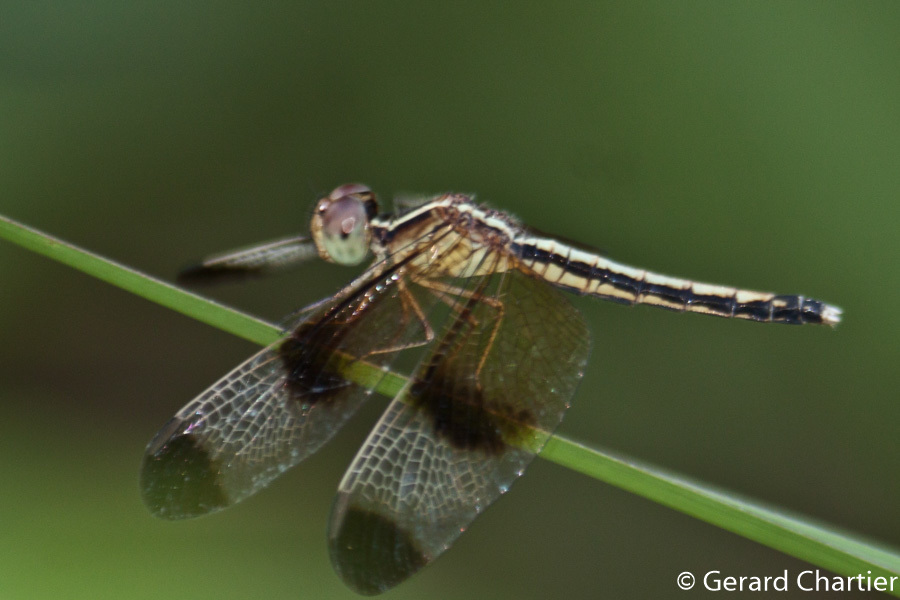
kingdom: Animalia
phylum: Arthropoda
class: Insecta
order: Odonata
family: Libellulidae
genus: Neurothemis
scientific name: Neurothemis tullia
